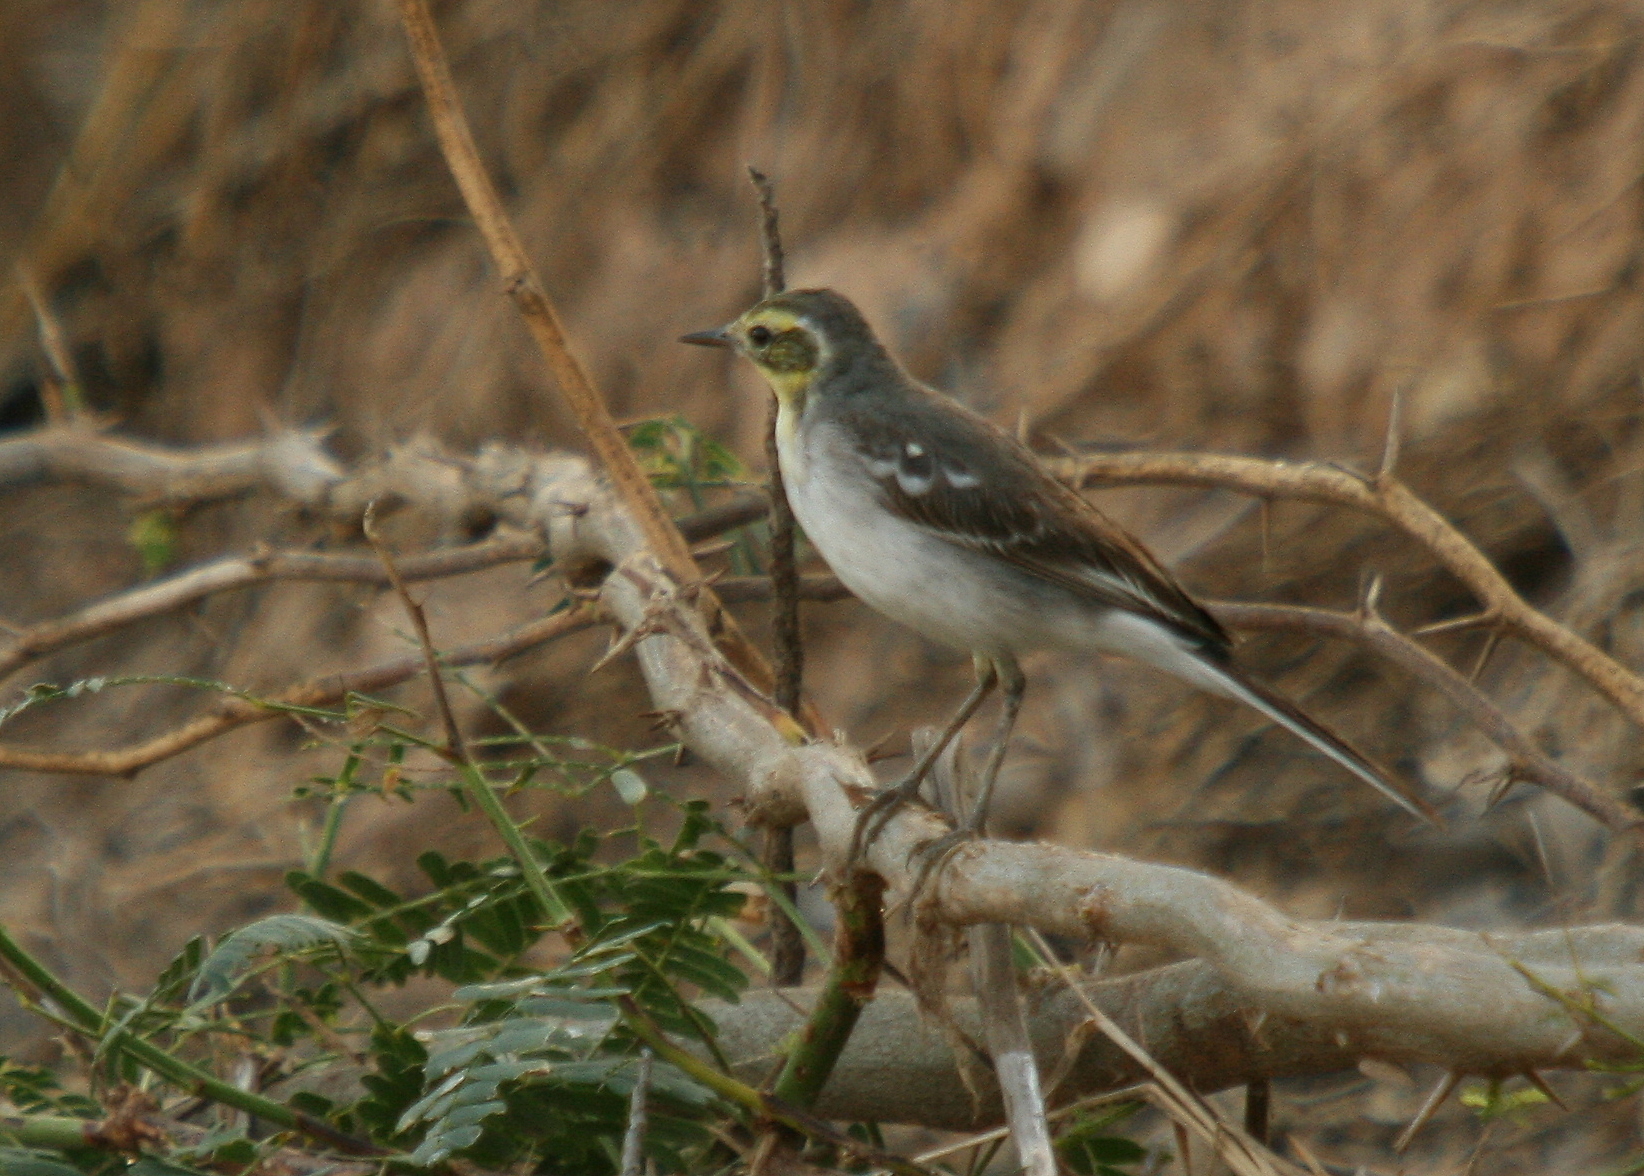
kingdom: Animalia
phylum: Chordata
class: Aves
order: Passeriformes
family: Motacillidae
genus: Motacilla
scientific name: Motacilla citreola
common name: Citrine wagtail
